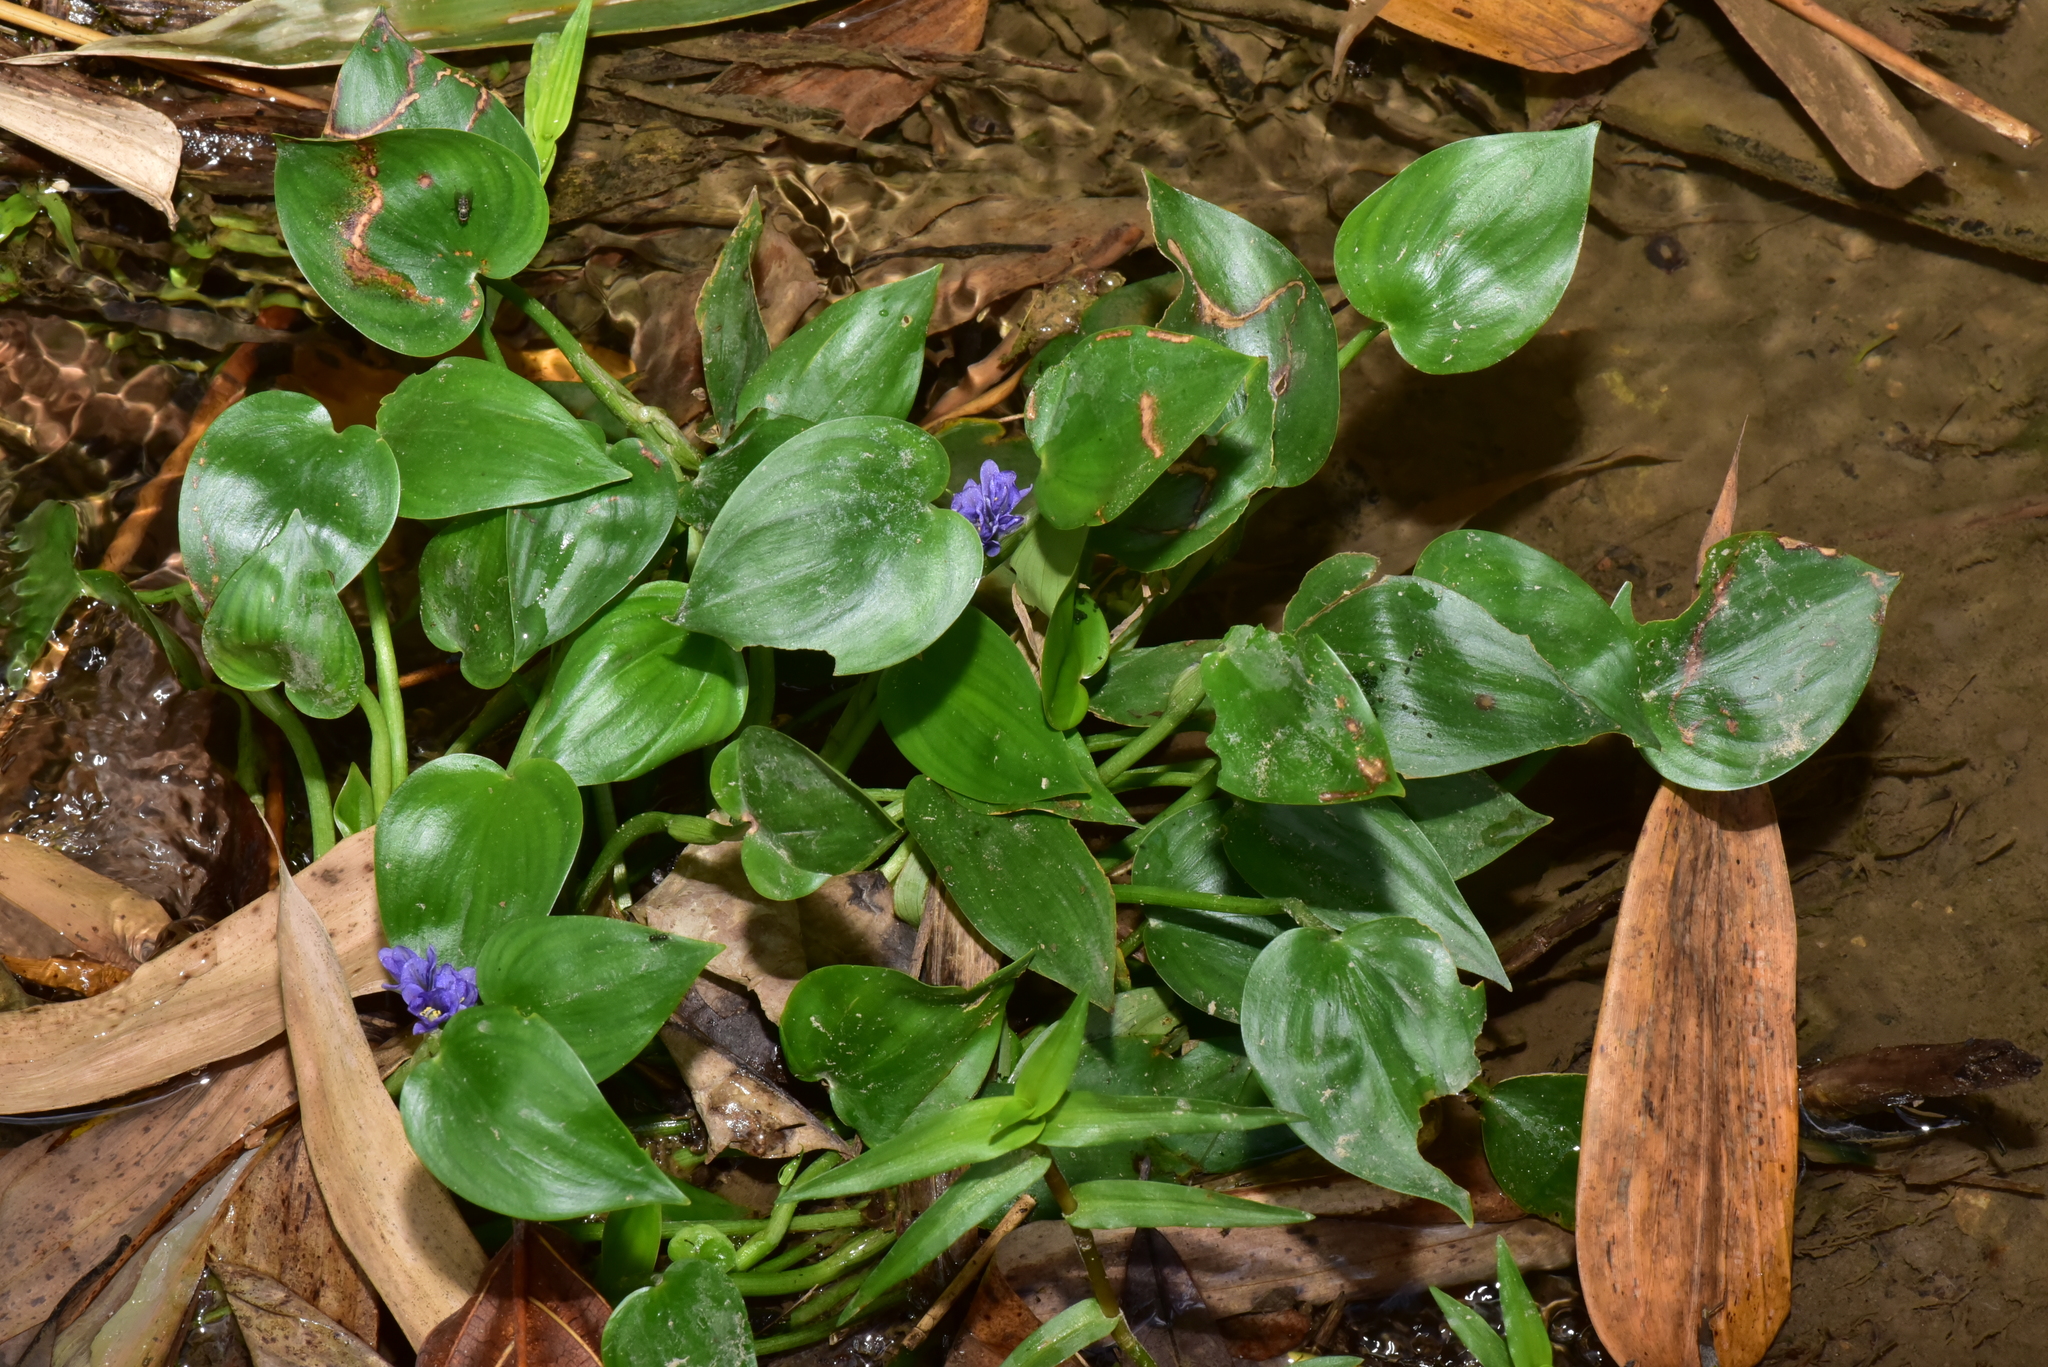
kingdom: Plantae
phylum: Tracheophyta
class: Liliopsida
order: Commelinales
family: Pontederiaceae
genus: Pontederia
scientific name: Pontederia vaginalis
